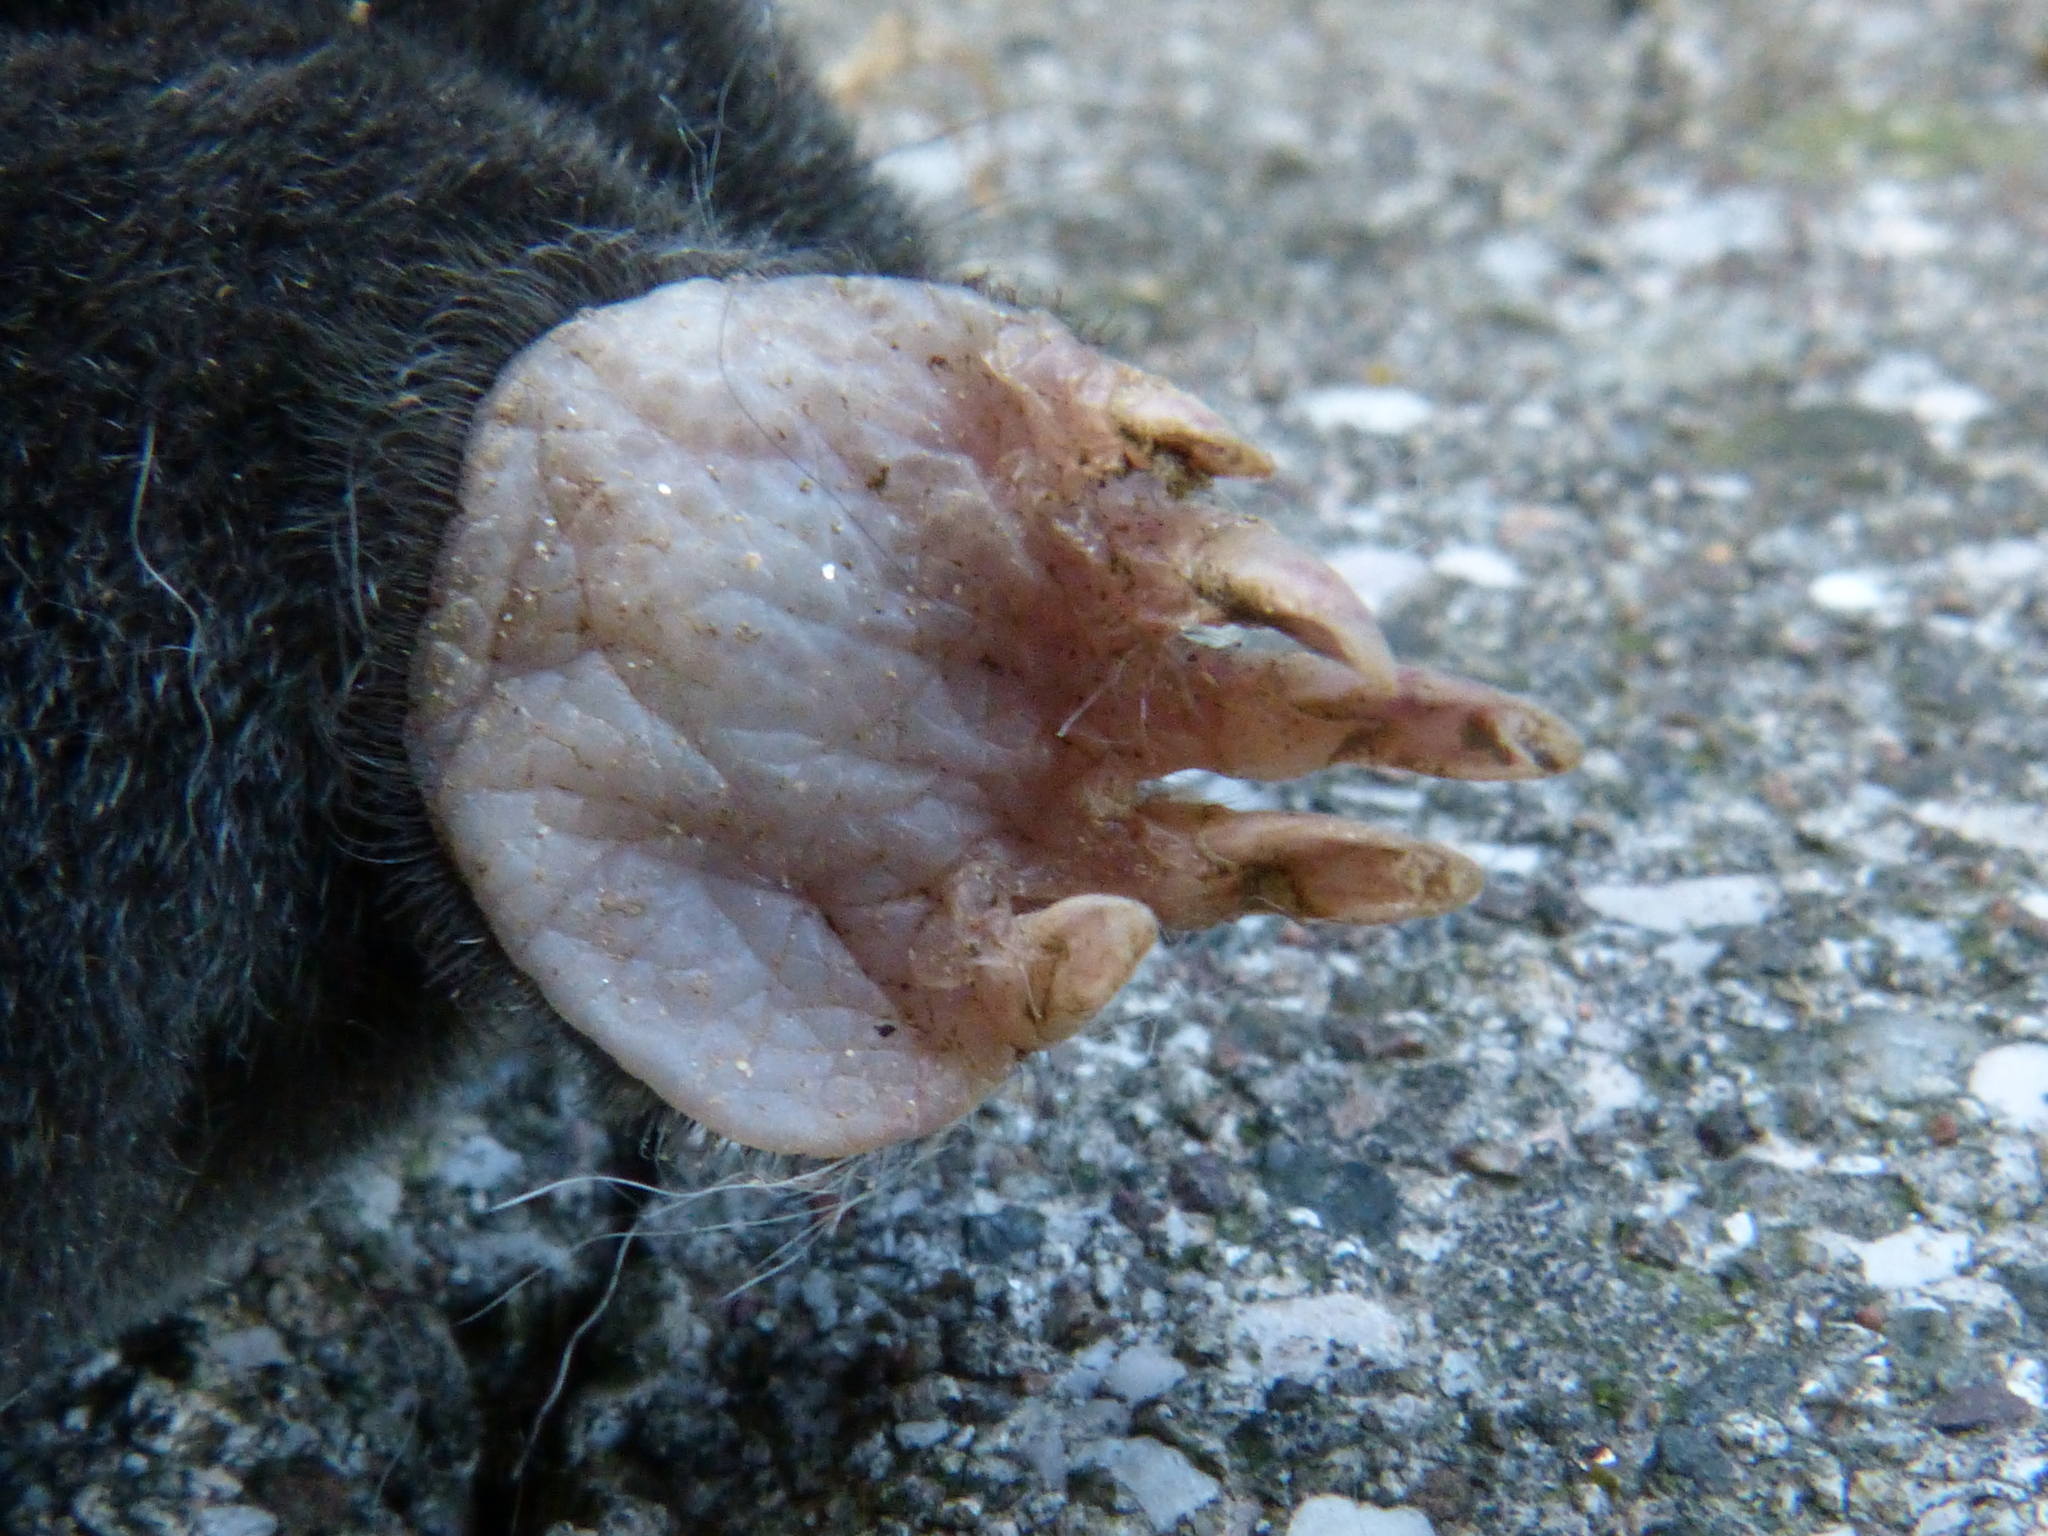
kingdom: Animalia
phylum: Chordata
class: Mammalia
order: Soricomorpha
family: Talpidae
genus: Talpa
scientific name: Talpa europaea
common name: European mole
